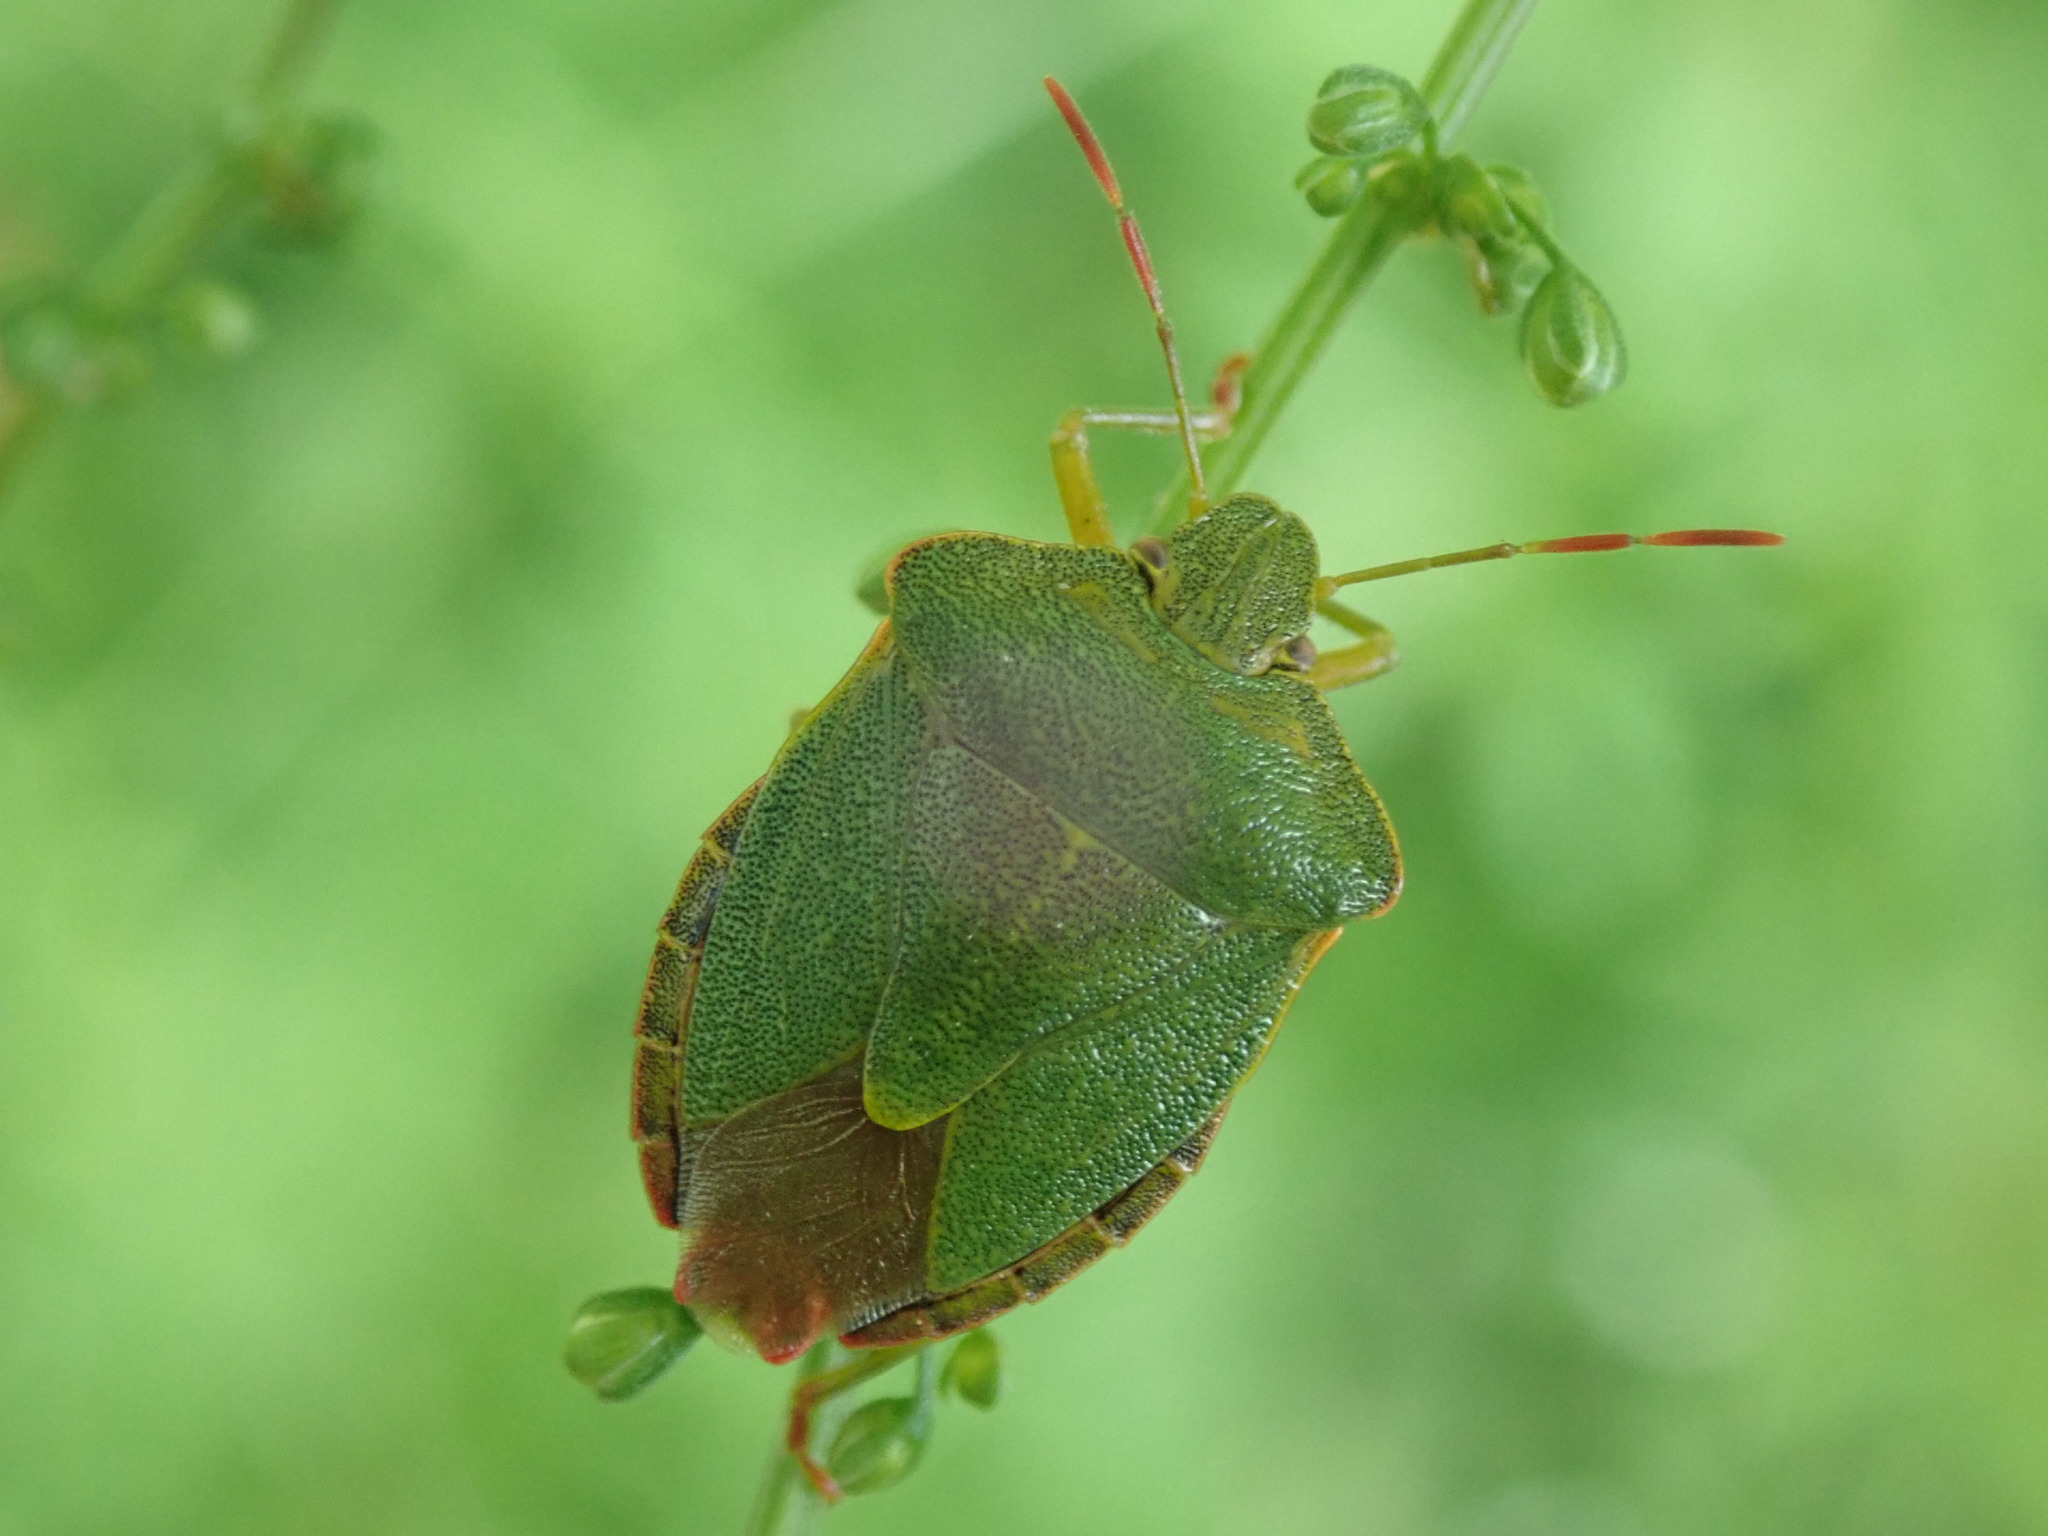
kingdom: Animalia
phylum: Arthropoda
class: Insecta
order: Hemiptera
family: Pentatomidae
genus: Palomena
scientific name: Palomena prasina
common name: Green shieldbug
